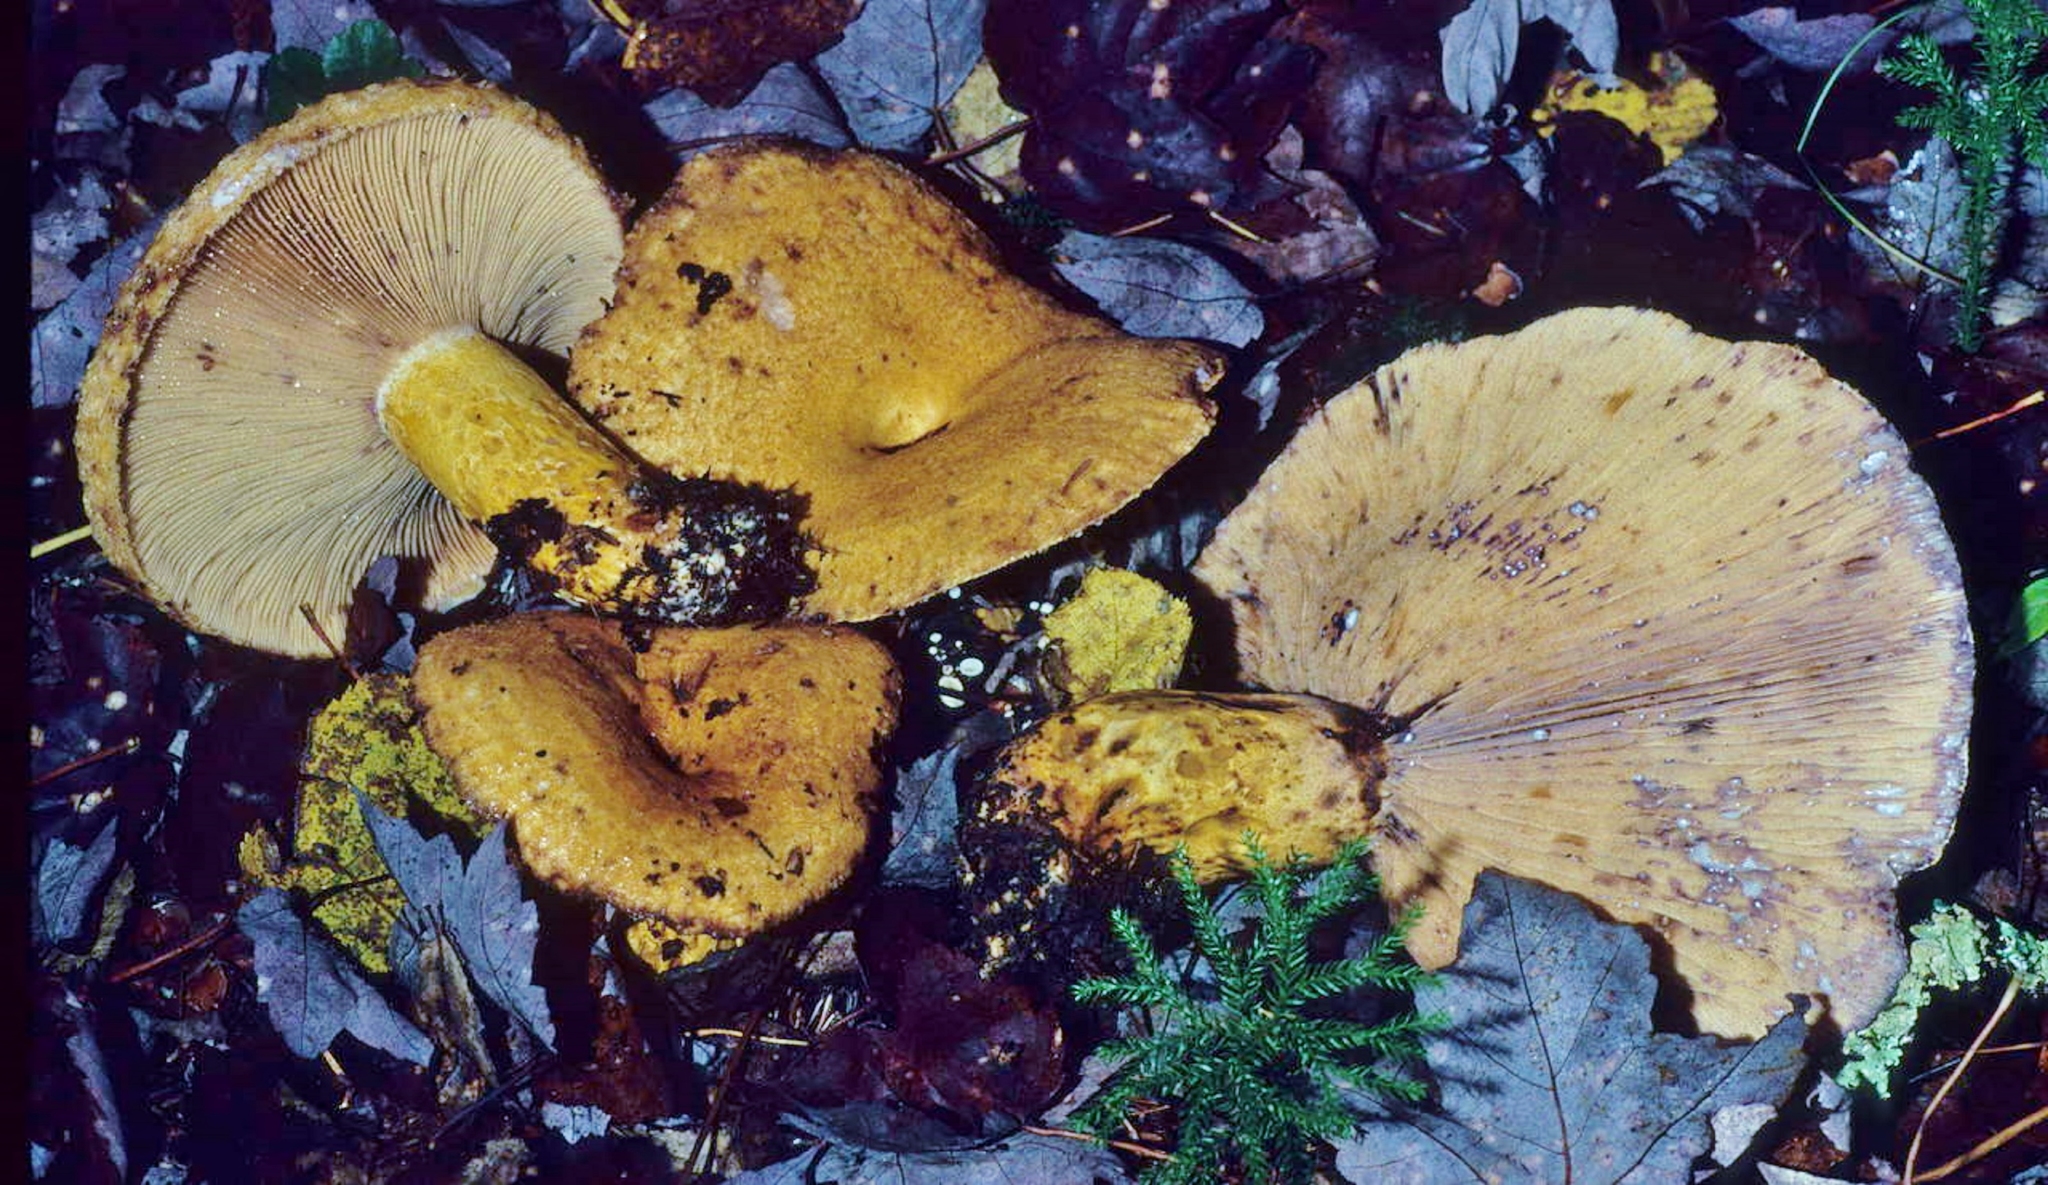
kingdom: Fungi
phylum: Basidiomycota
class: Agaricomycetes
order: Russulales
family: Russulaceae
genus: Lactarius
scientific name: Lactarius repraesentaneus
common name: Yellow bearded milkcap
